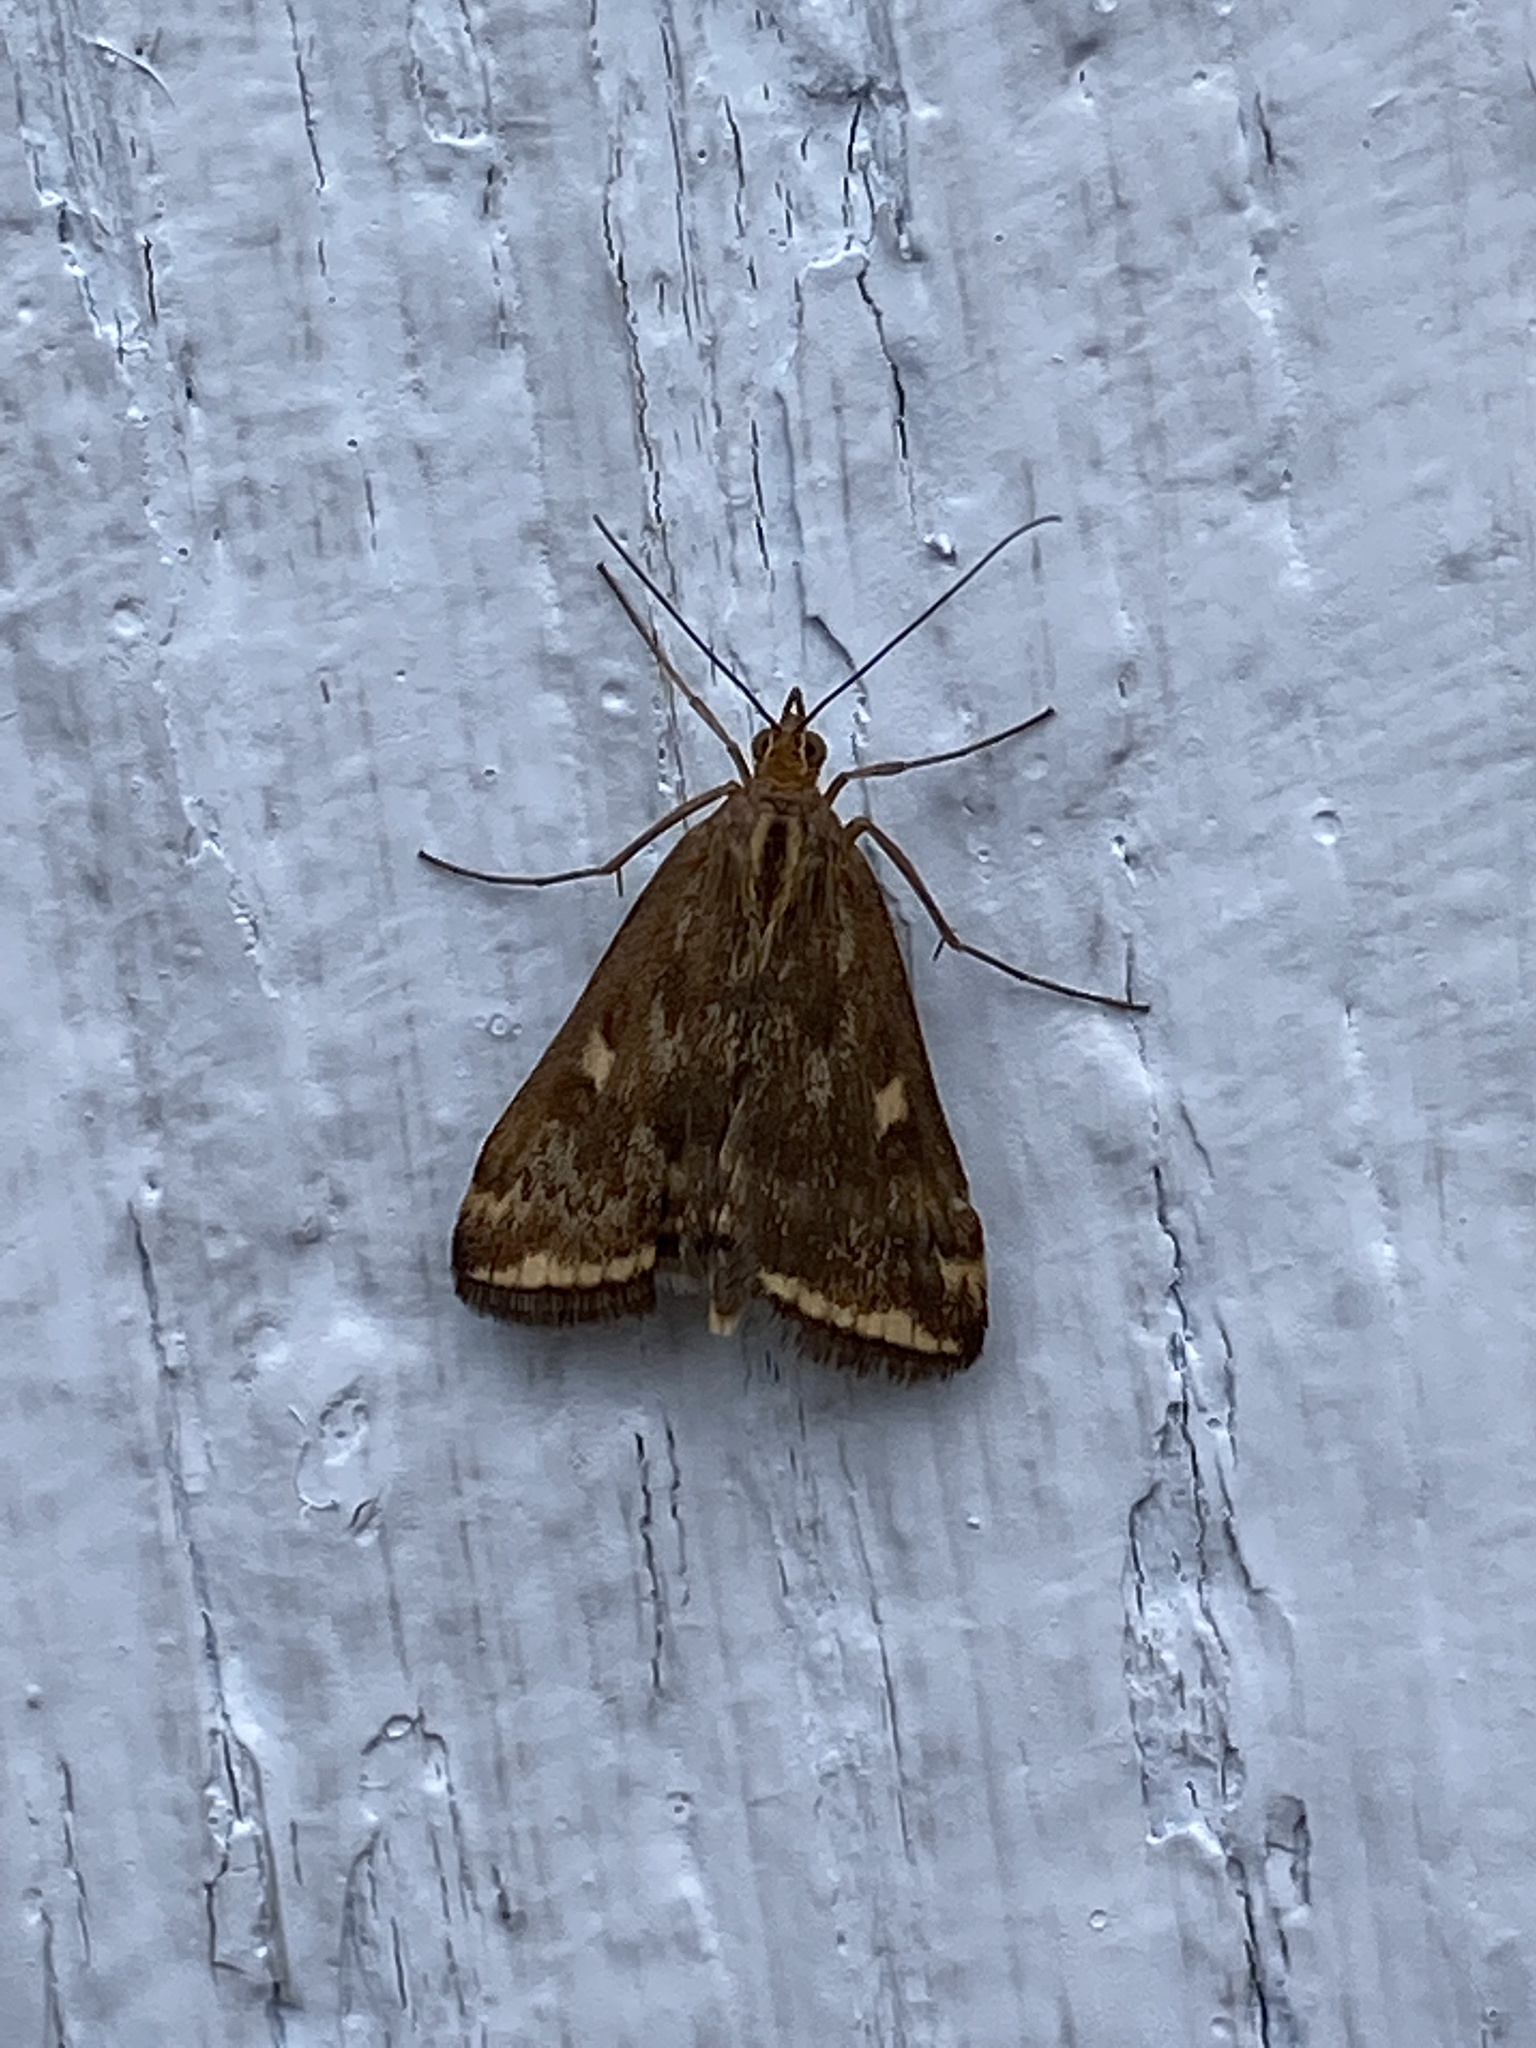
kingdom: Animalia
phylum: Arthropoda
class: Insecta
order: Lepidoptera
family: Crambidae
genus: Loxostege
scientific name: Loxostege
